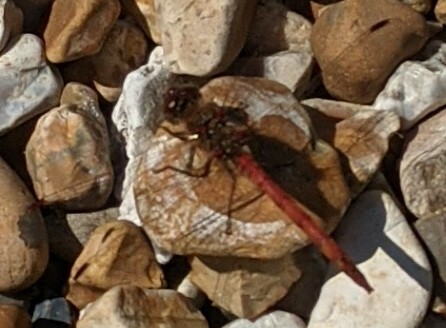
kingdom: Animalia
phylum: Arthropoda
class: Insecta
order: Odonata
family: Libellulidae
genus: Sympetrum
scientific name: Sympetrum sanguineum
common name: Ruddy darter
